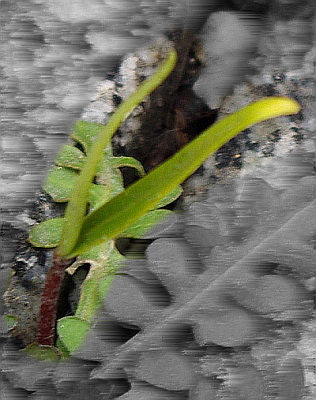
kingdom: Plantae
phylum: Tracheophyta
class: Magnoliopsida
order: Sapindales
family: Sapindaceae
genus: Acer
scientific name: Acer negundo
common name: Ashleaf maple
